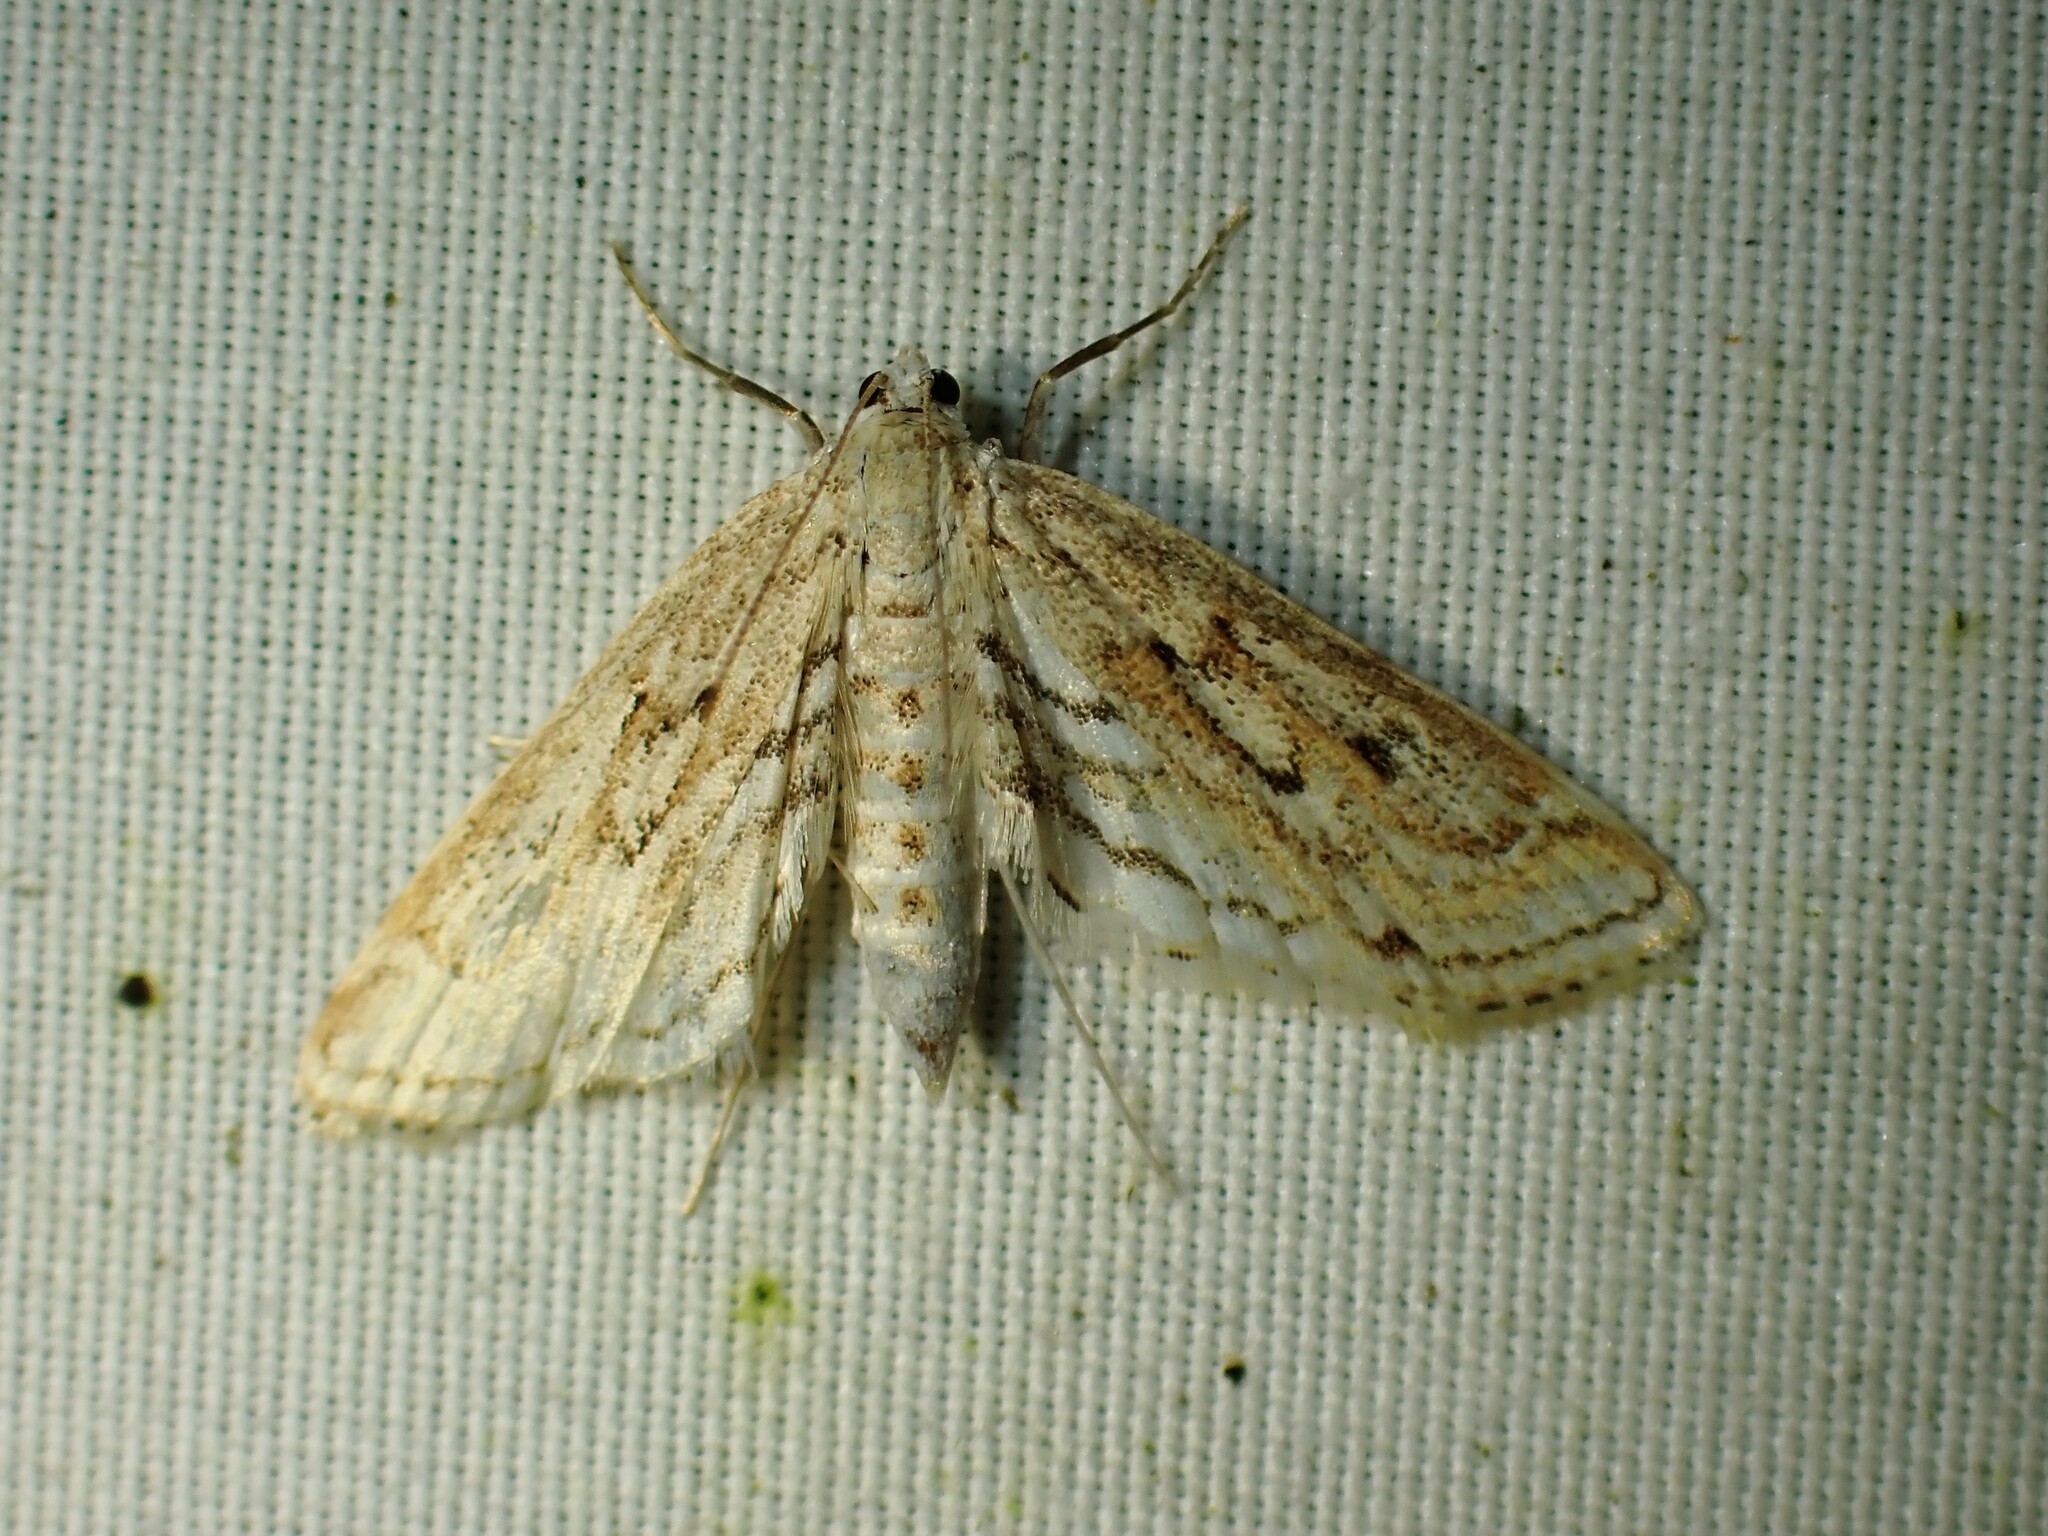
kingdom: Animalia
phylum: Arthropoda
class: Insecta
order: Lepidoptera
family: Crambidae
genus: Parapoynx
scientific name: Parapoynx allionealis
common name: Bladderwort casemaker
